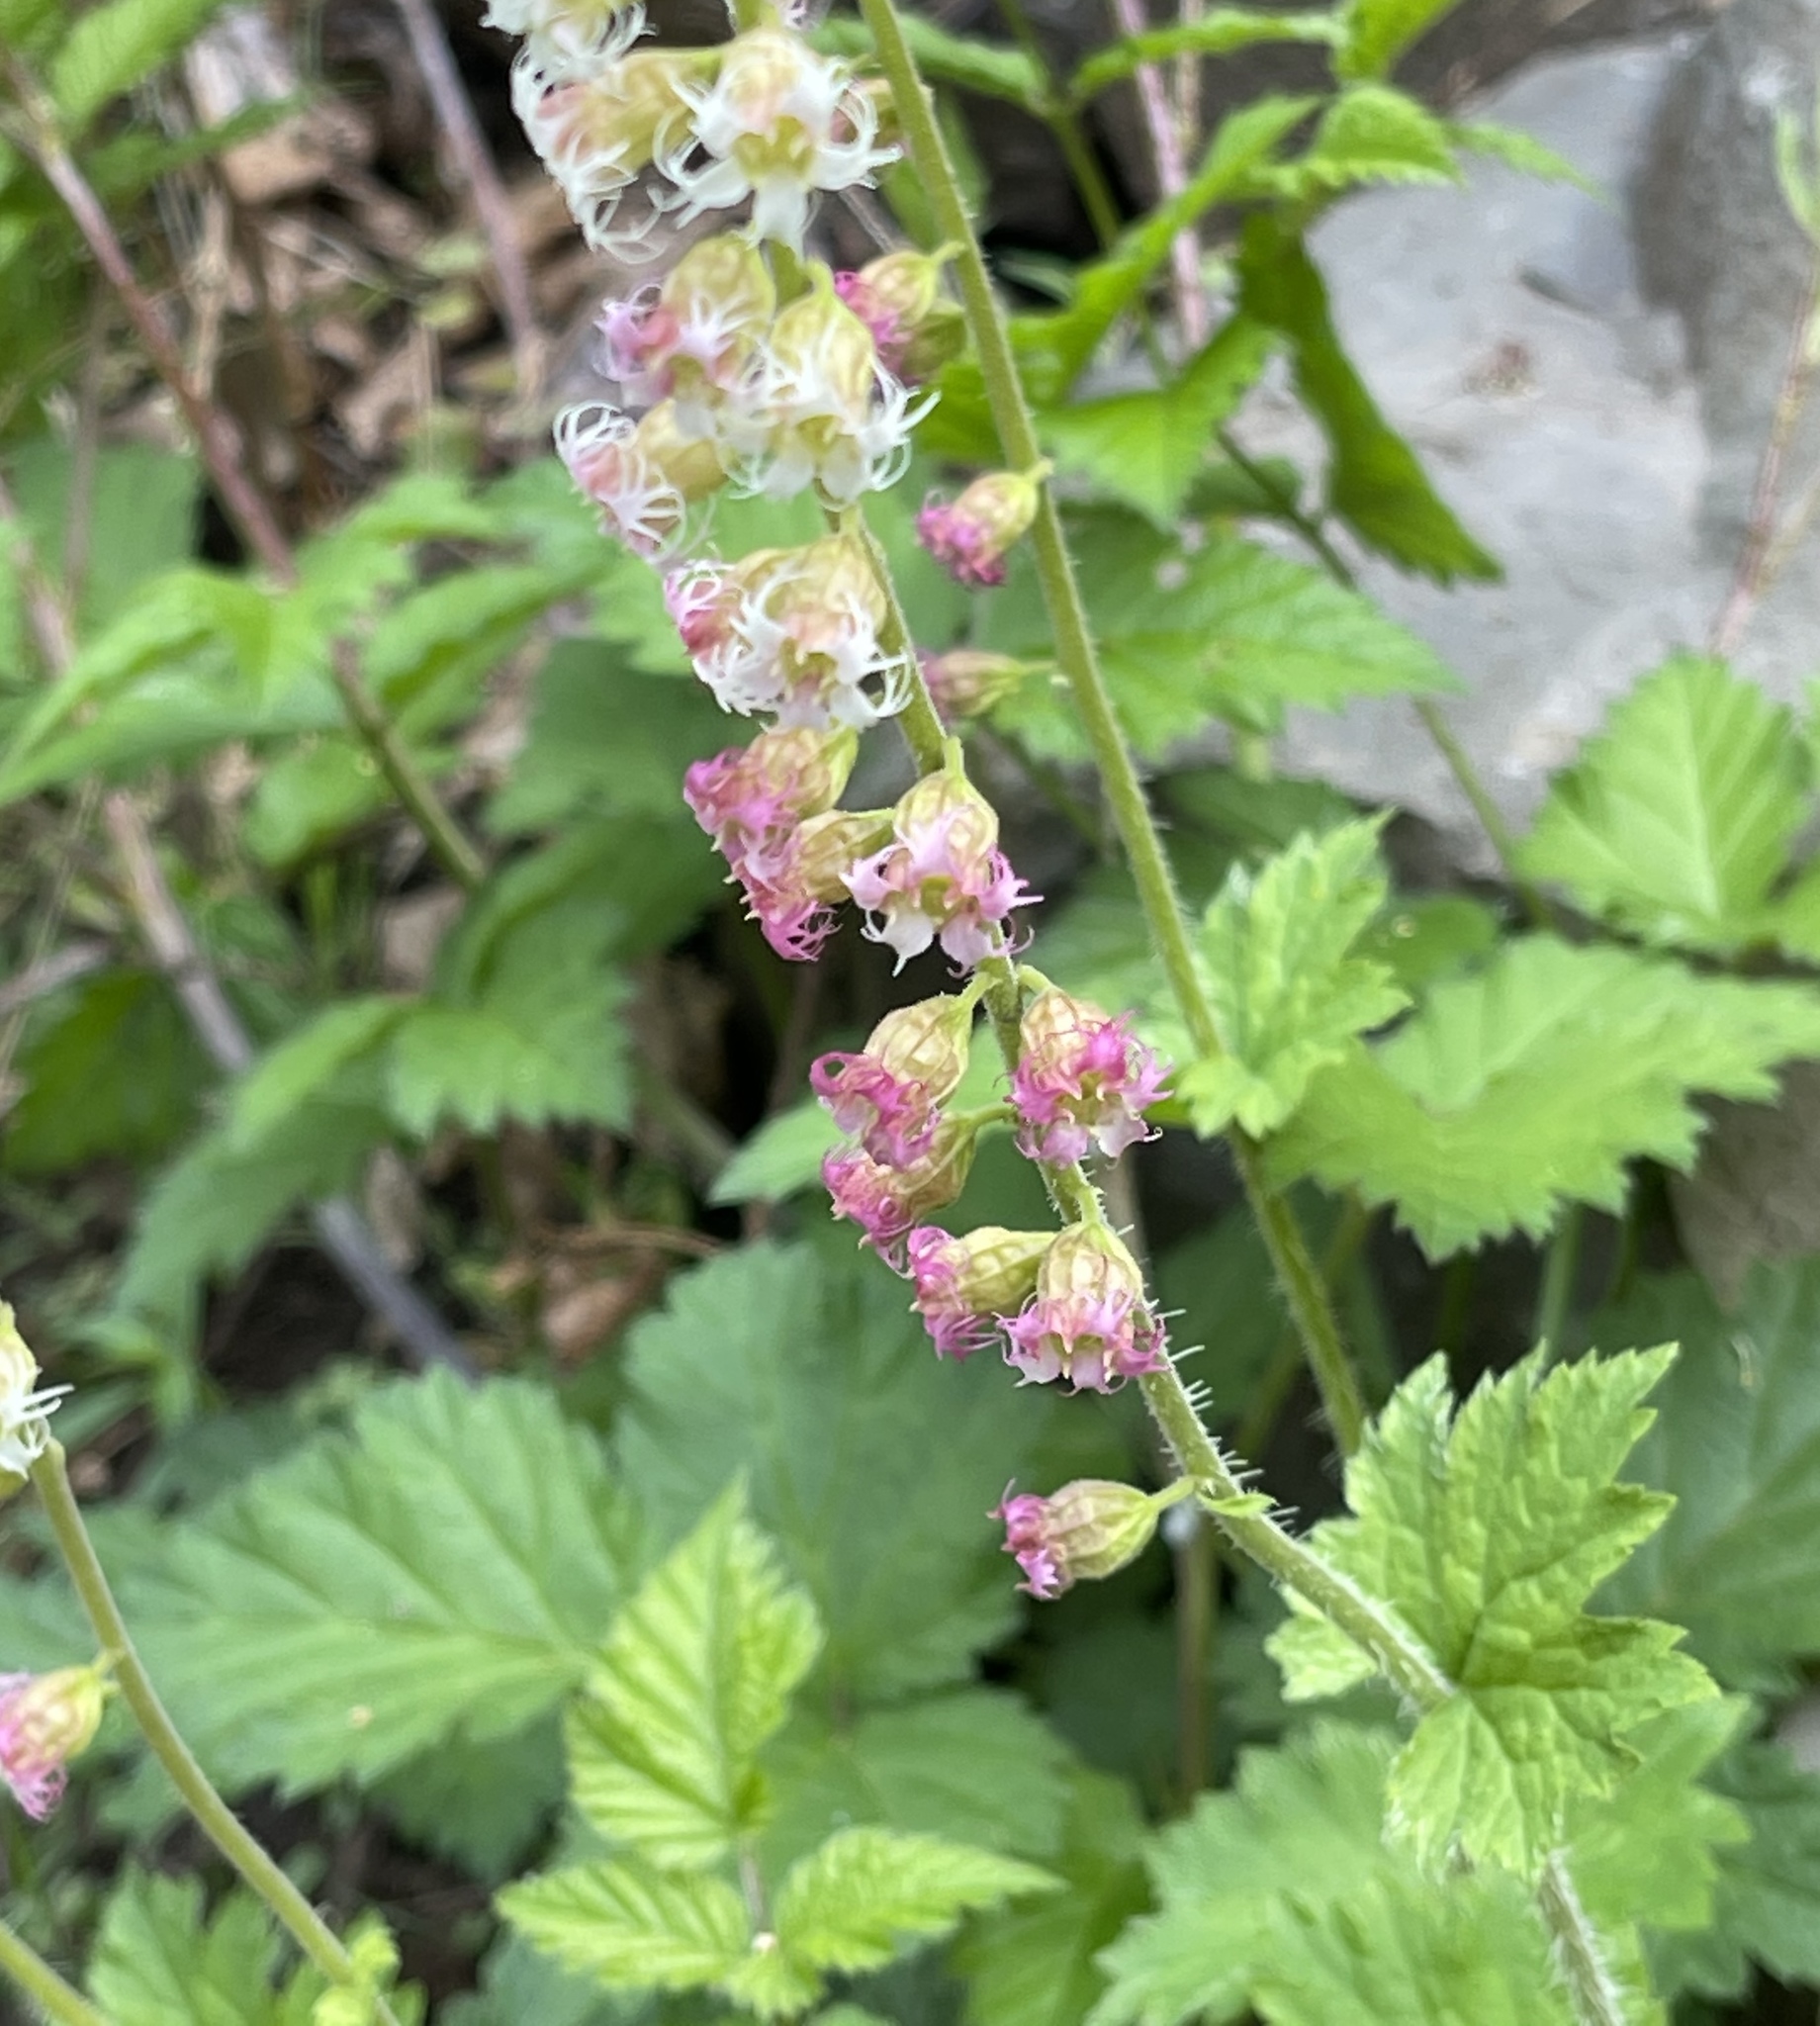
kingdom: Plantae
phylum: Tracheophyta
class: Magnoliopsida
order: Saxifragales
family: Saxifragaceae
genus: Tellima
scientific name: Tellima grandiflora
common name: Fringecups
